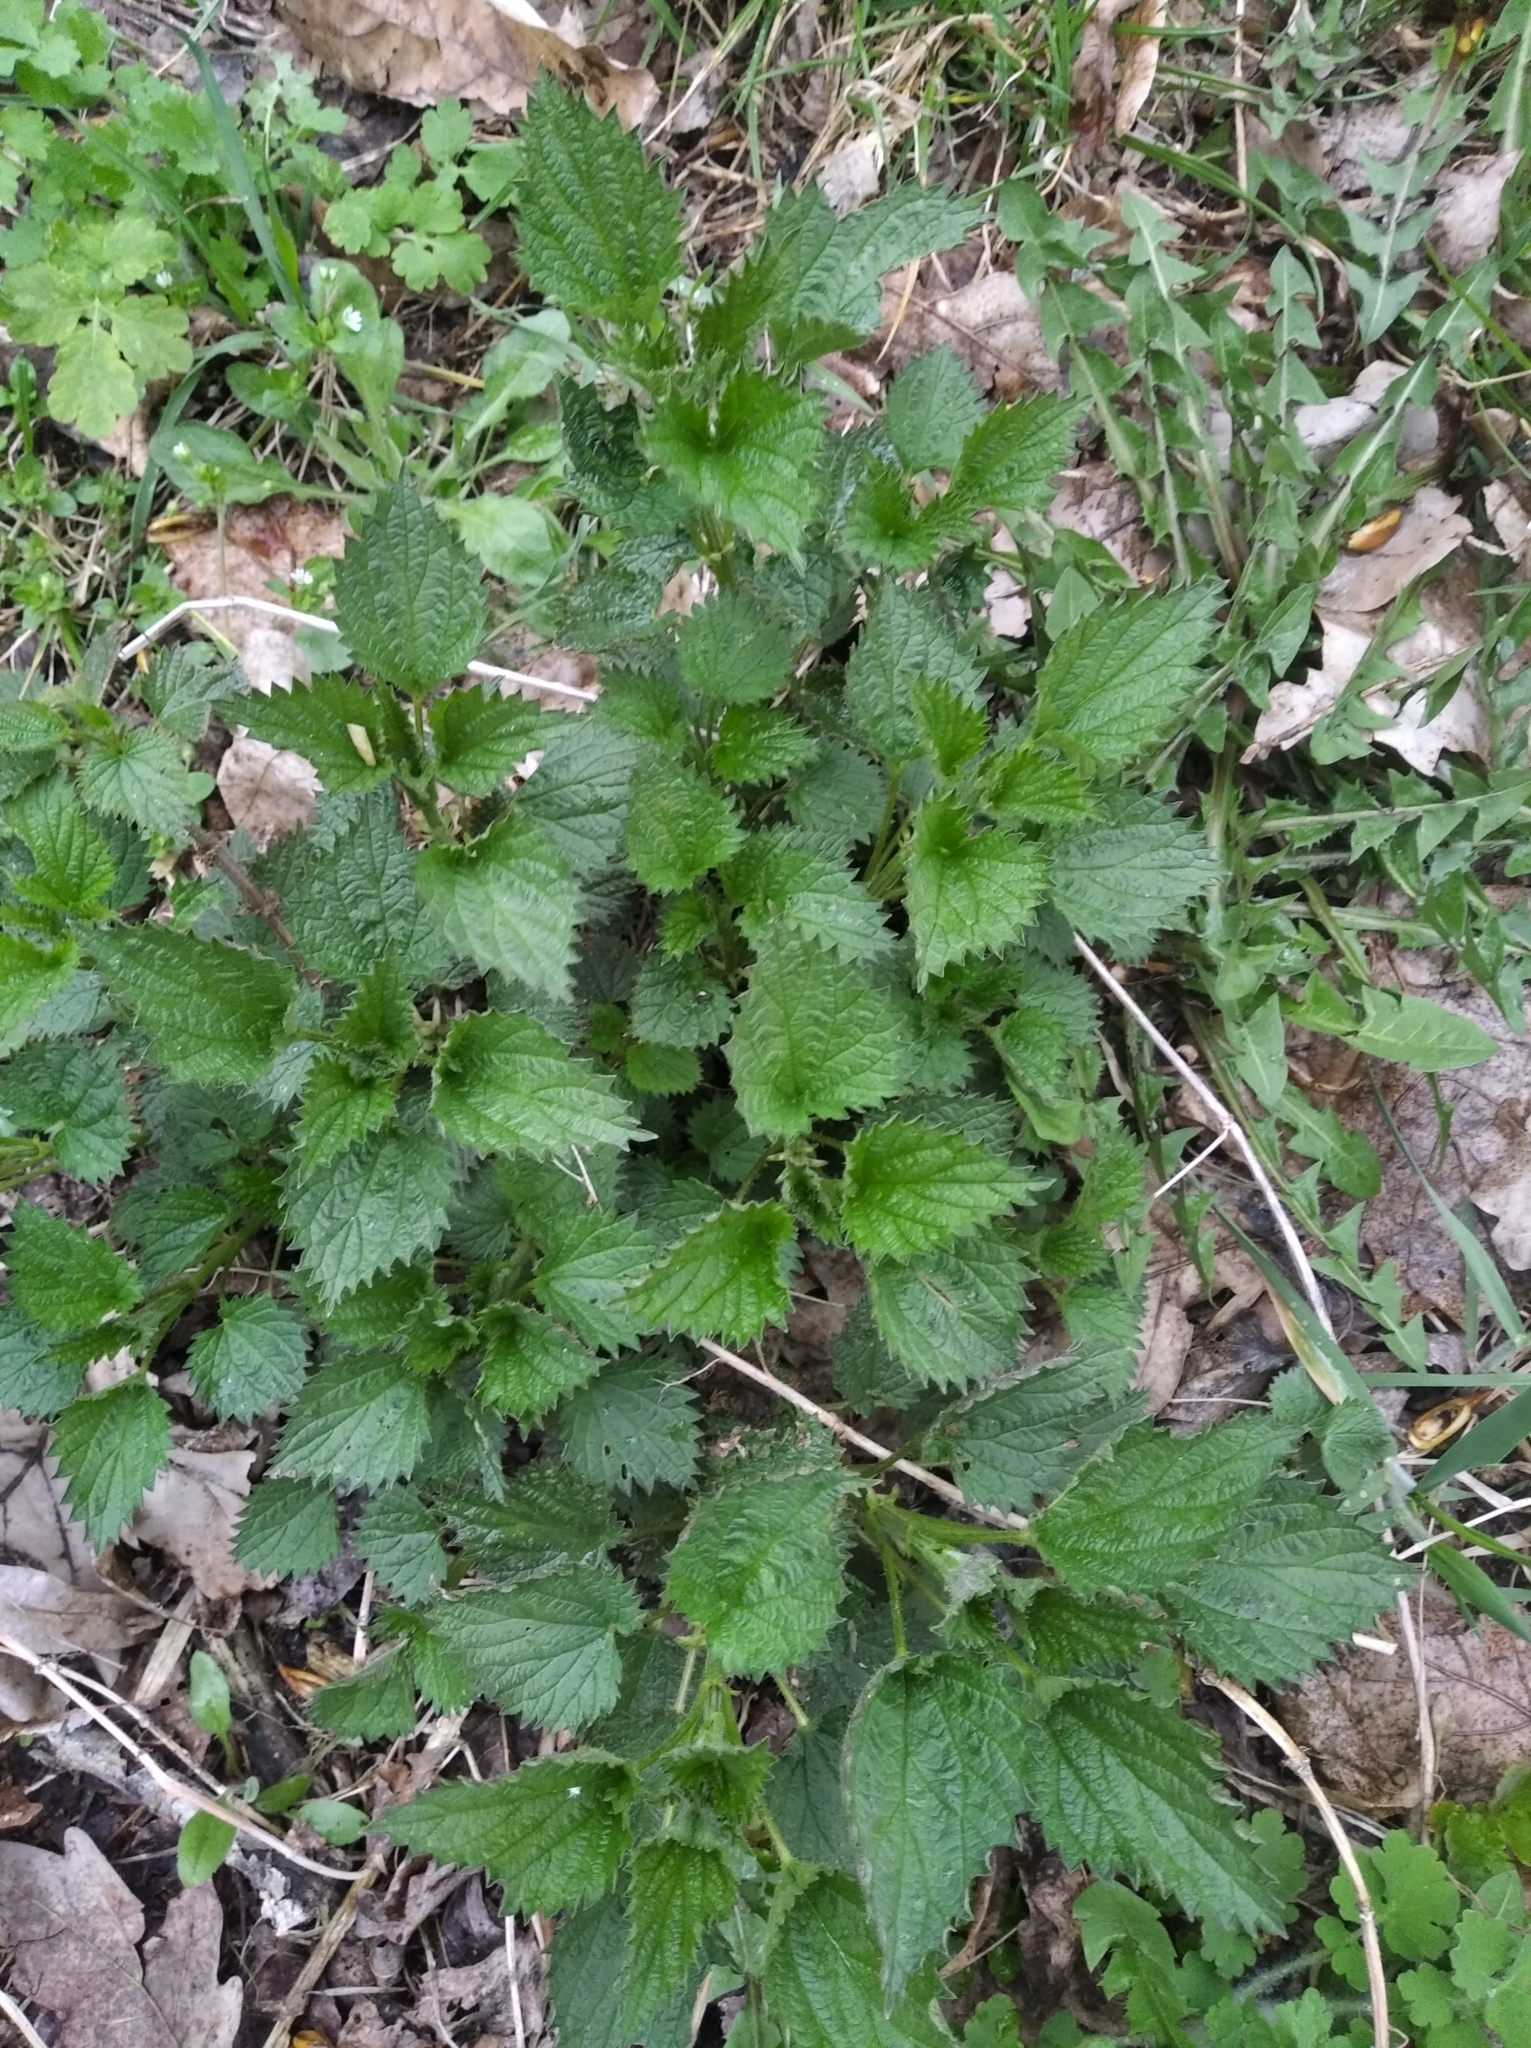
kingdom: Plantae
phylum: Tracheophyta
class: Magnoliopsida
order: Rosales
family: Urticaceae
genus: Urtica
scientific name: Urtica dioica
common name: Common nettle
